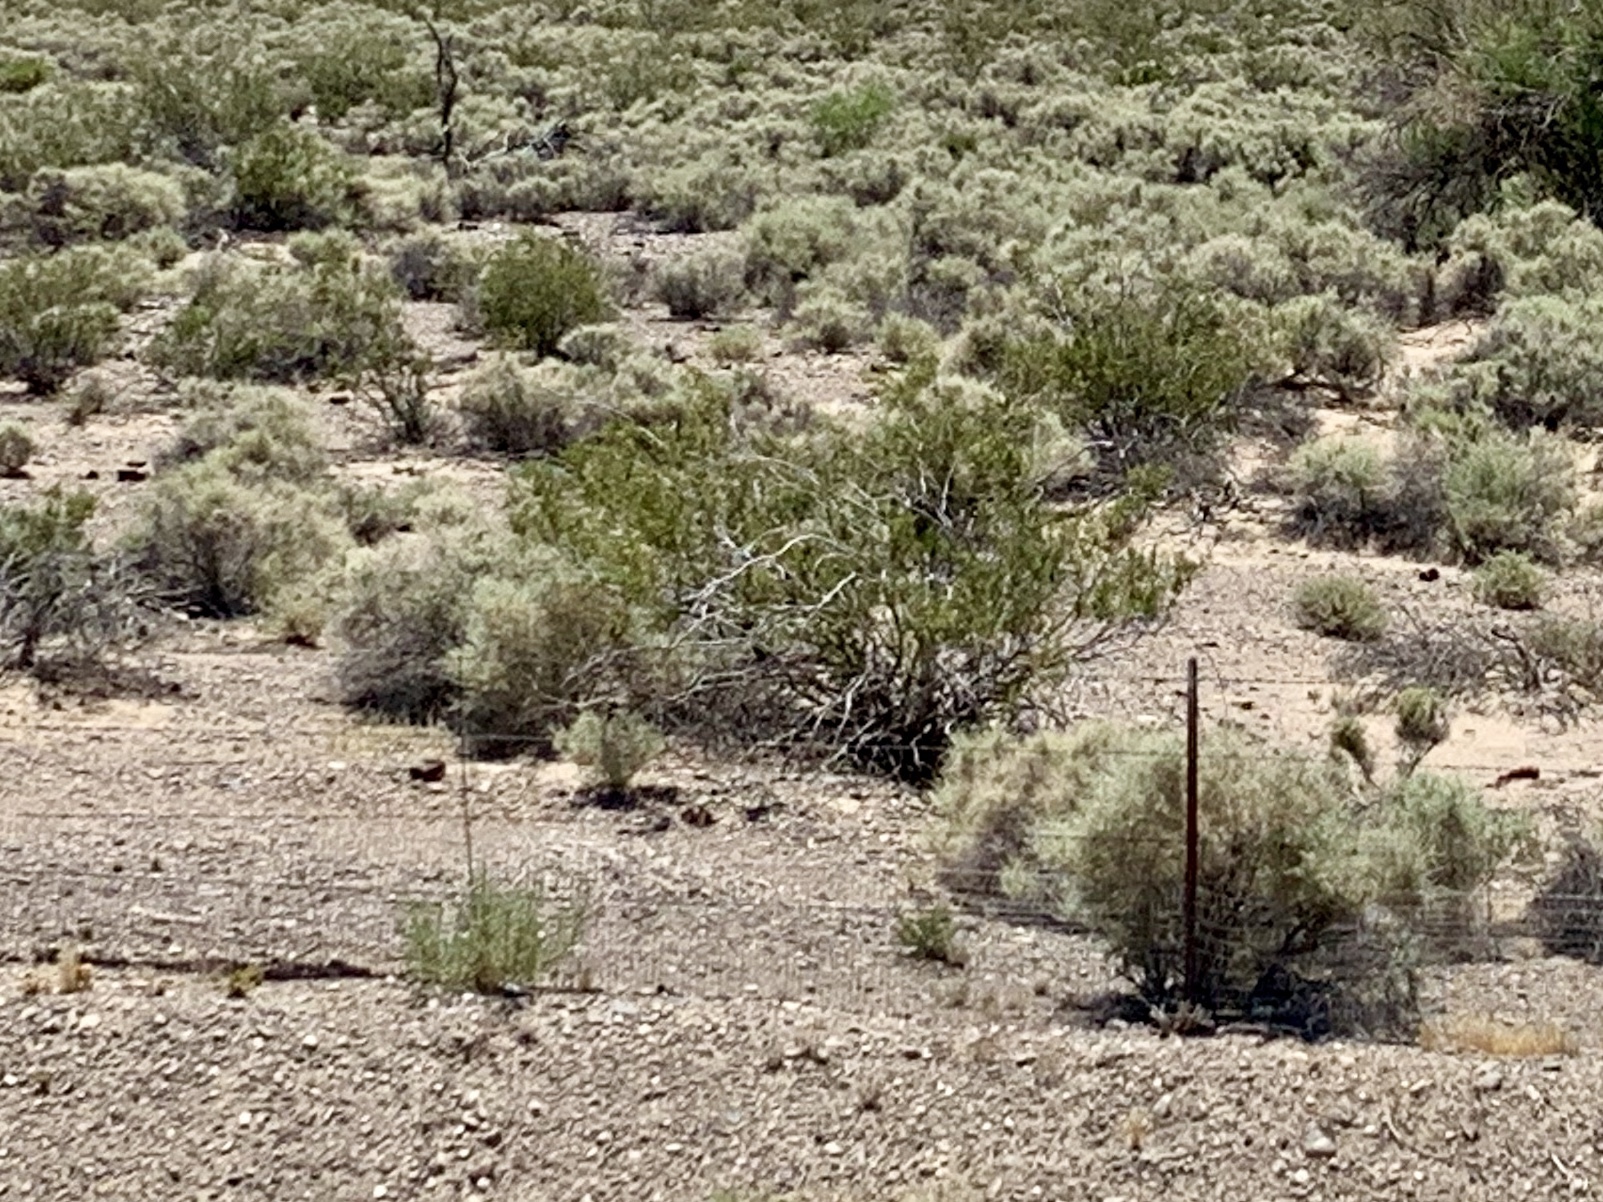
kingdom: Plantae
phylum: Tracheophyta
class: Magnoliopsida
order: Zygophyllales
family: Zygophyllaceae
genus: Larrea
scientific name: Larrea tridentata
